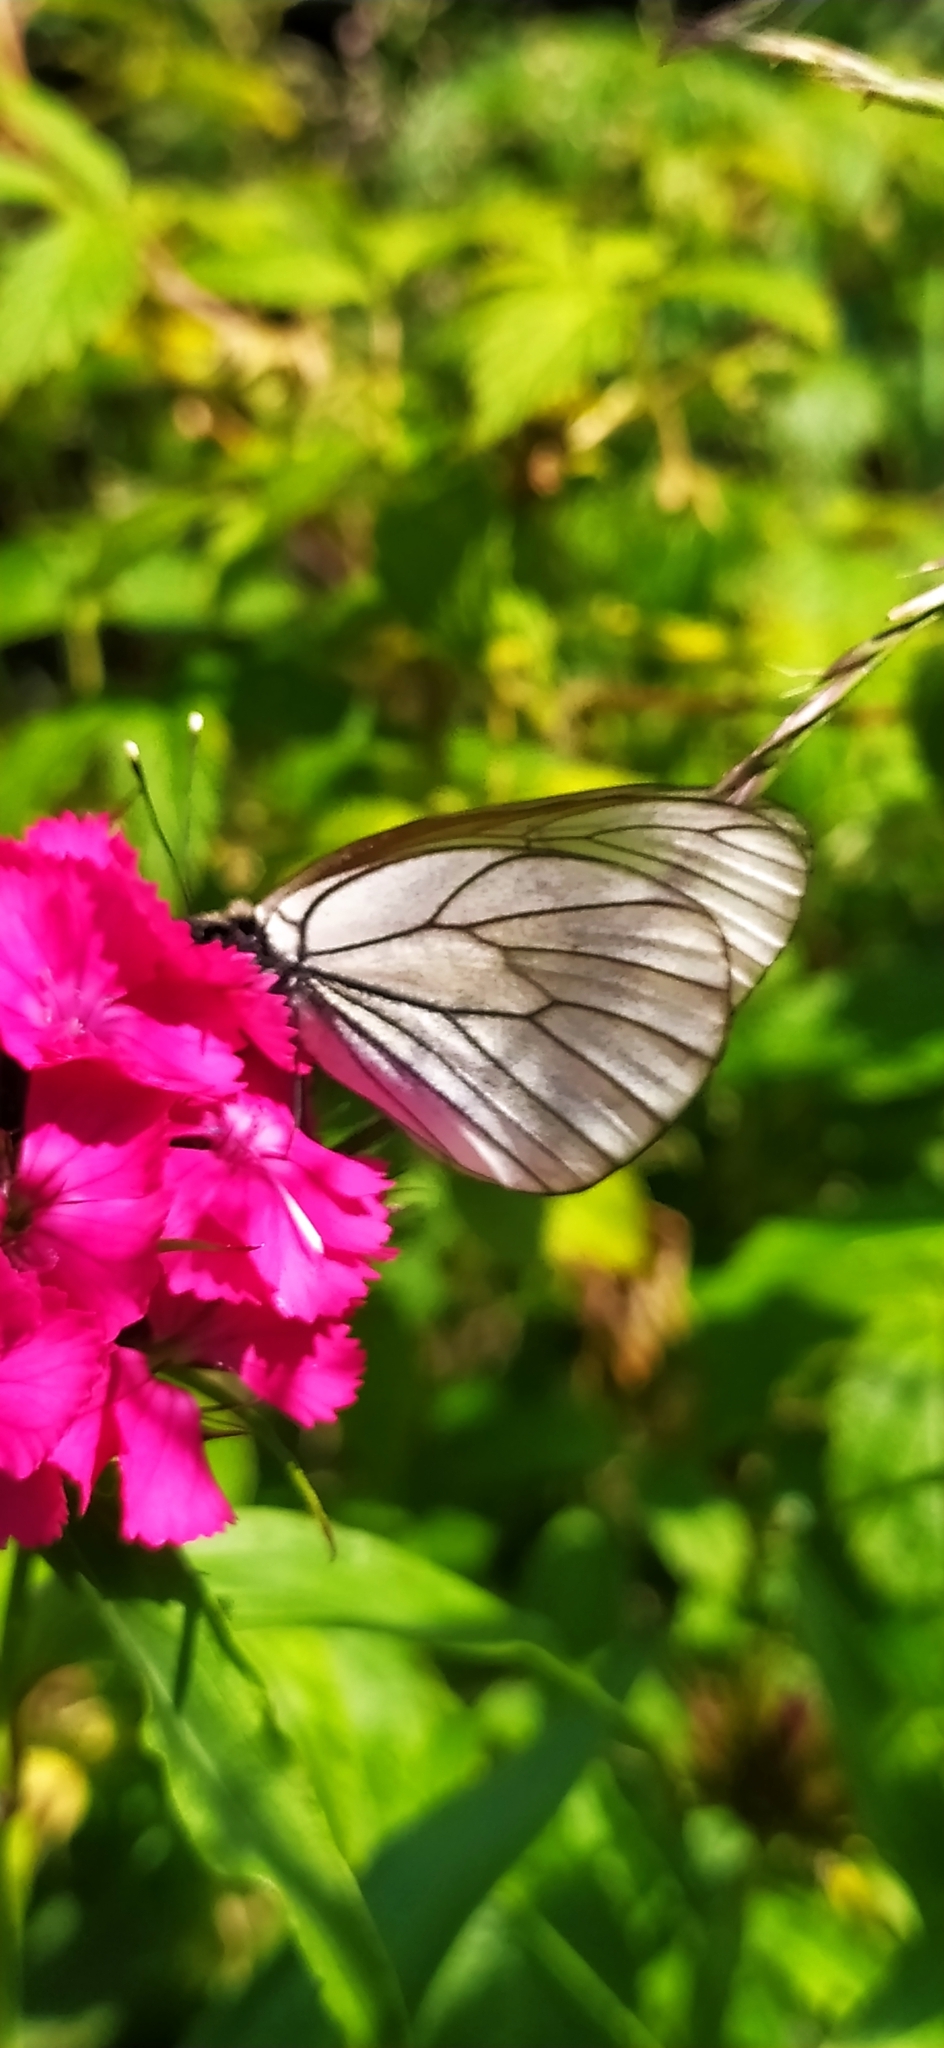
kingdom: Animalia
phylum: Arthropoda
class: Insecta
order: Lepidoptera
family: Pieridae
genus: Aporia
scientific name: Aporia crataegi
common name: Black-veined white
